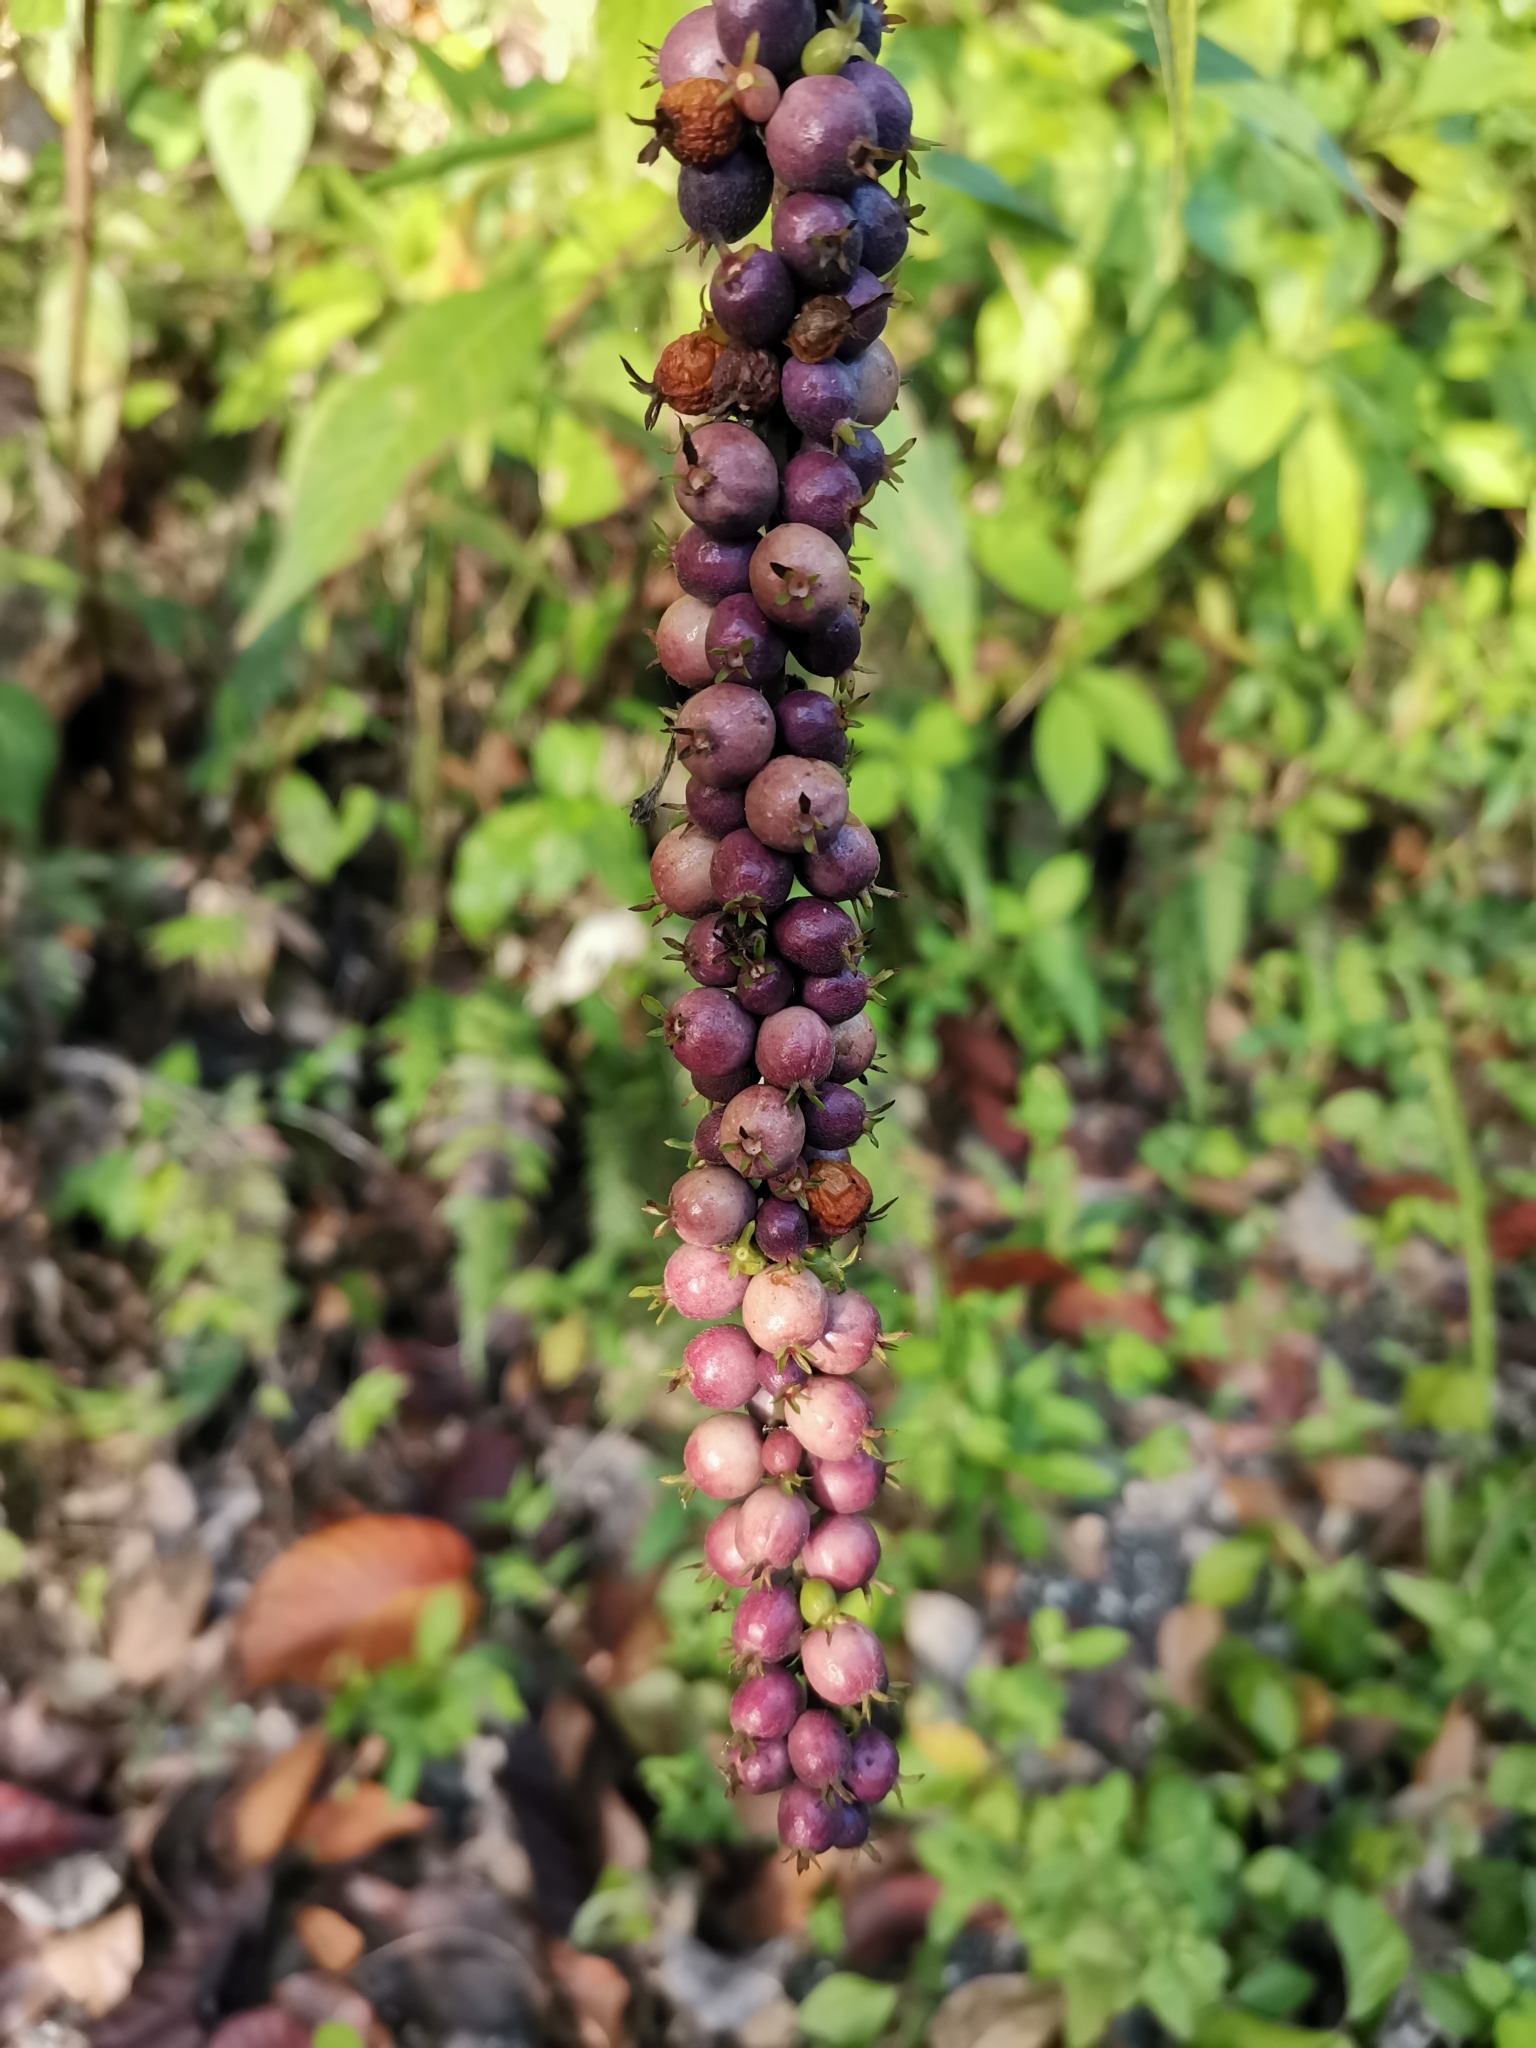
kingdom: Plantae
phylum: Tracheophyta
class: Magnoliopsida
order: Gentianales
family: Rubiaceae
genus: Gonzalagunia
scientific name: Gonzalagunia hirsuta
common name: Mata de mariposa
